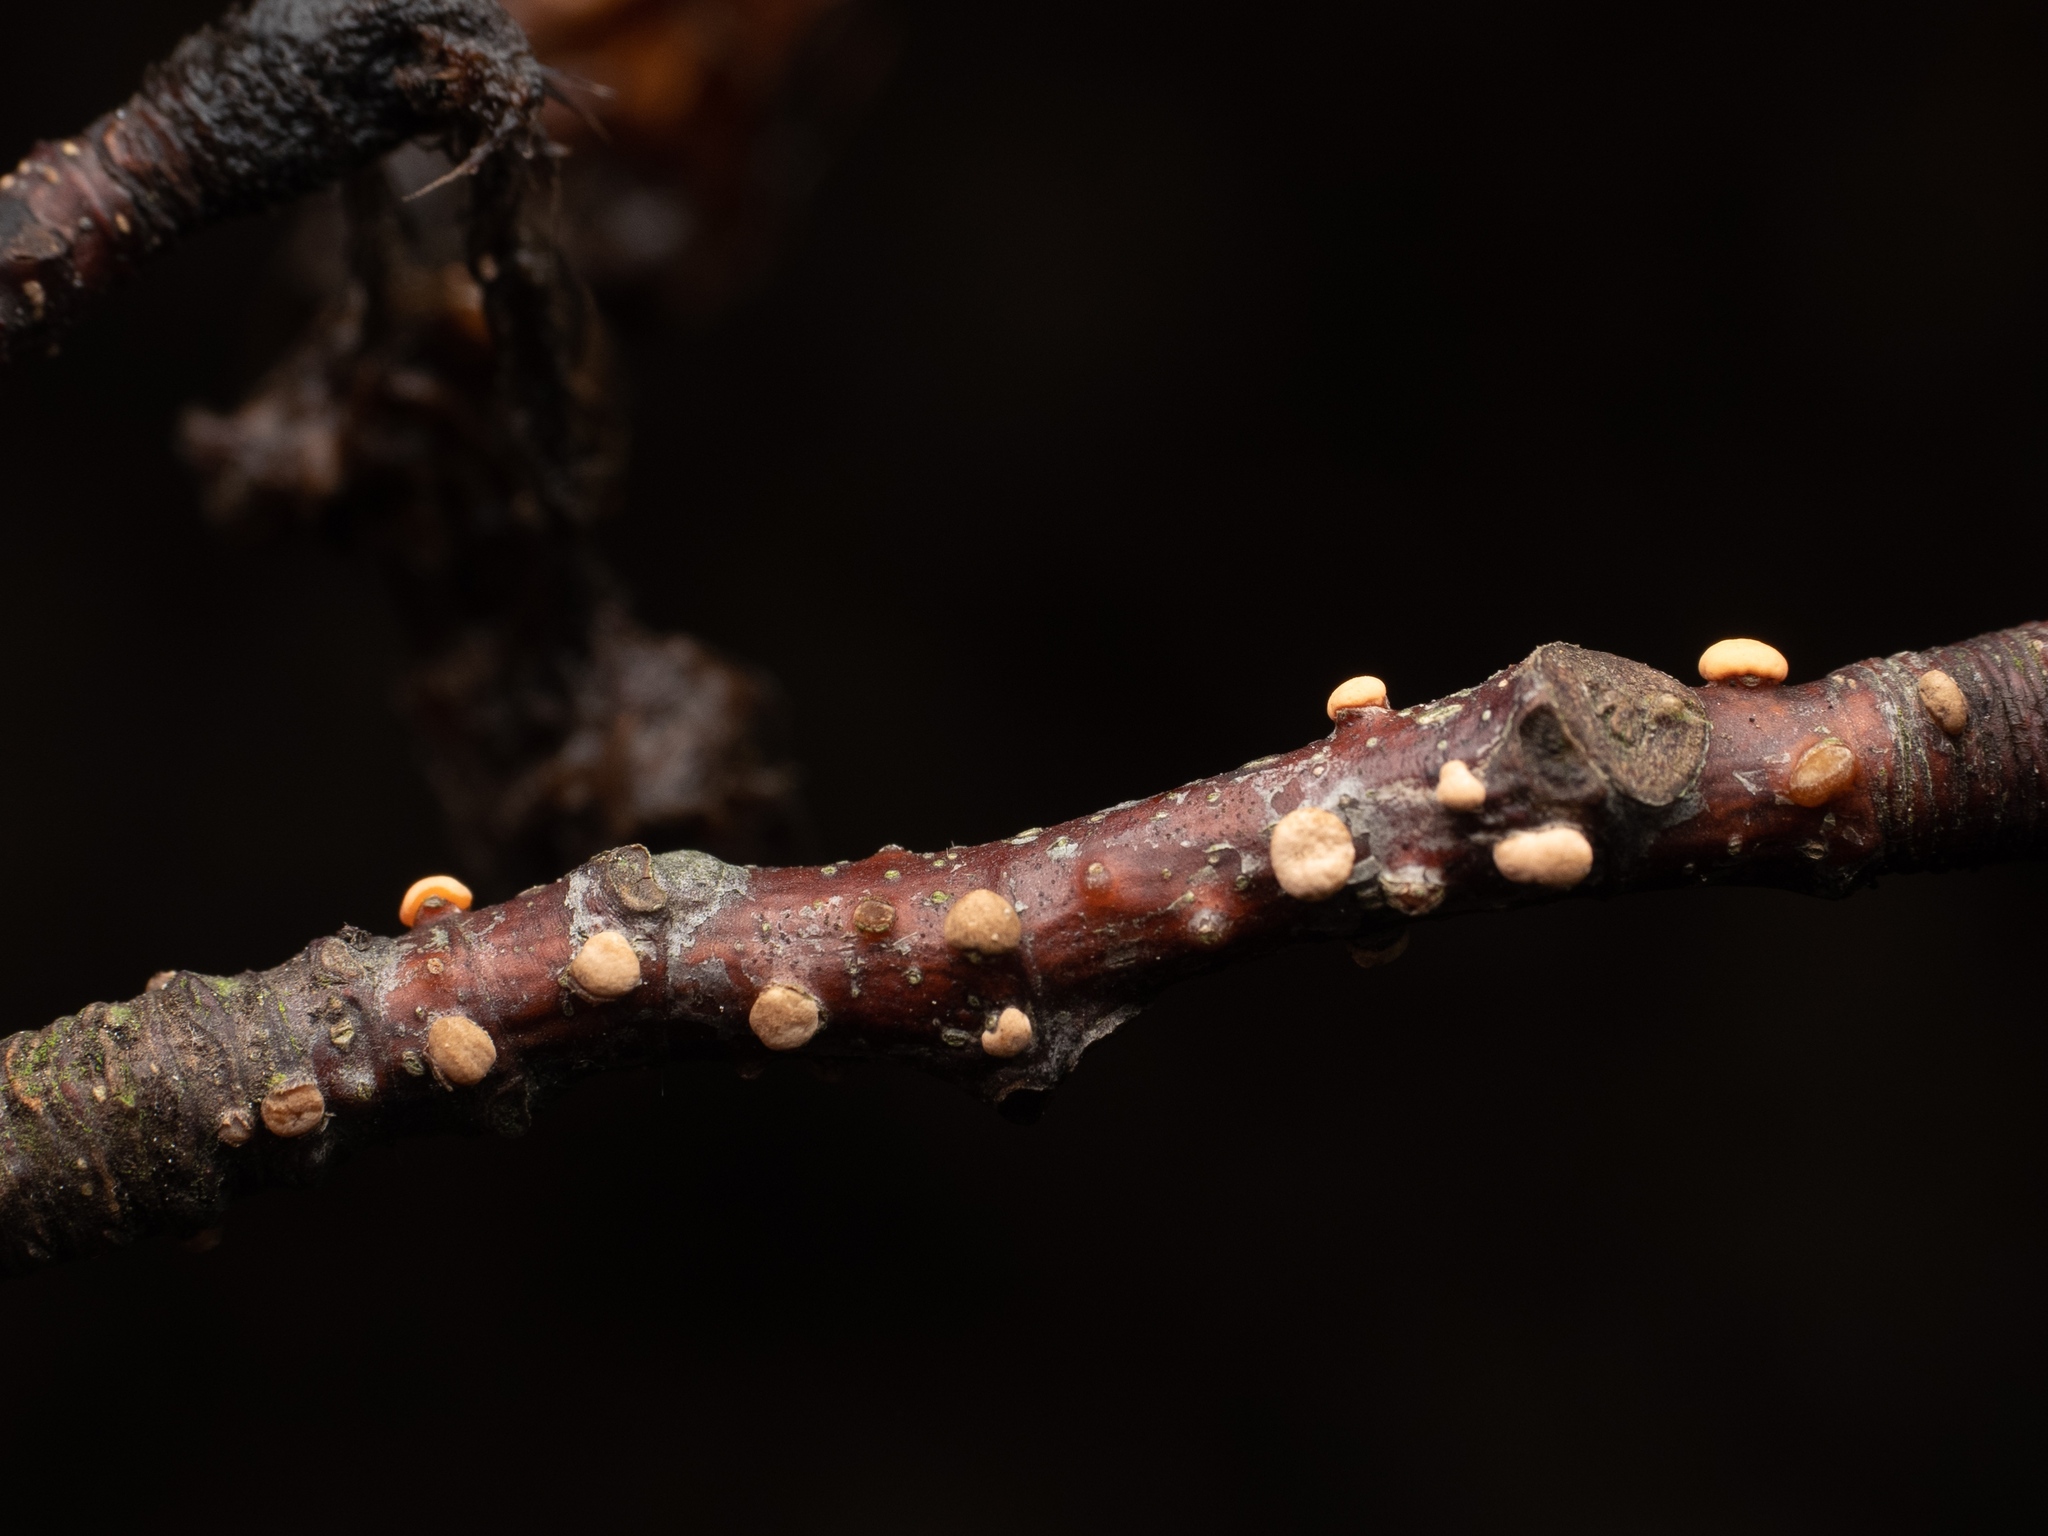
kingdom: Fungi
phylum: Ascomycota
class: Sordariomycetes
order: Hypocreales
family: Nectriaceae
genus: Nectria
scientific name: Nectria cinnabarina
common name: Coral spot
